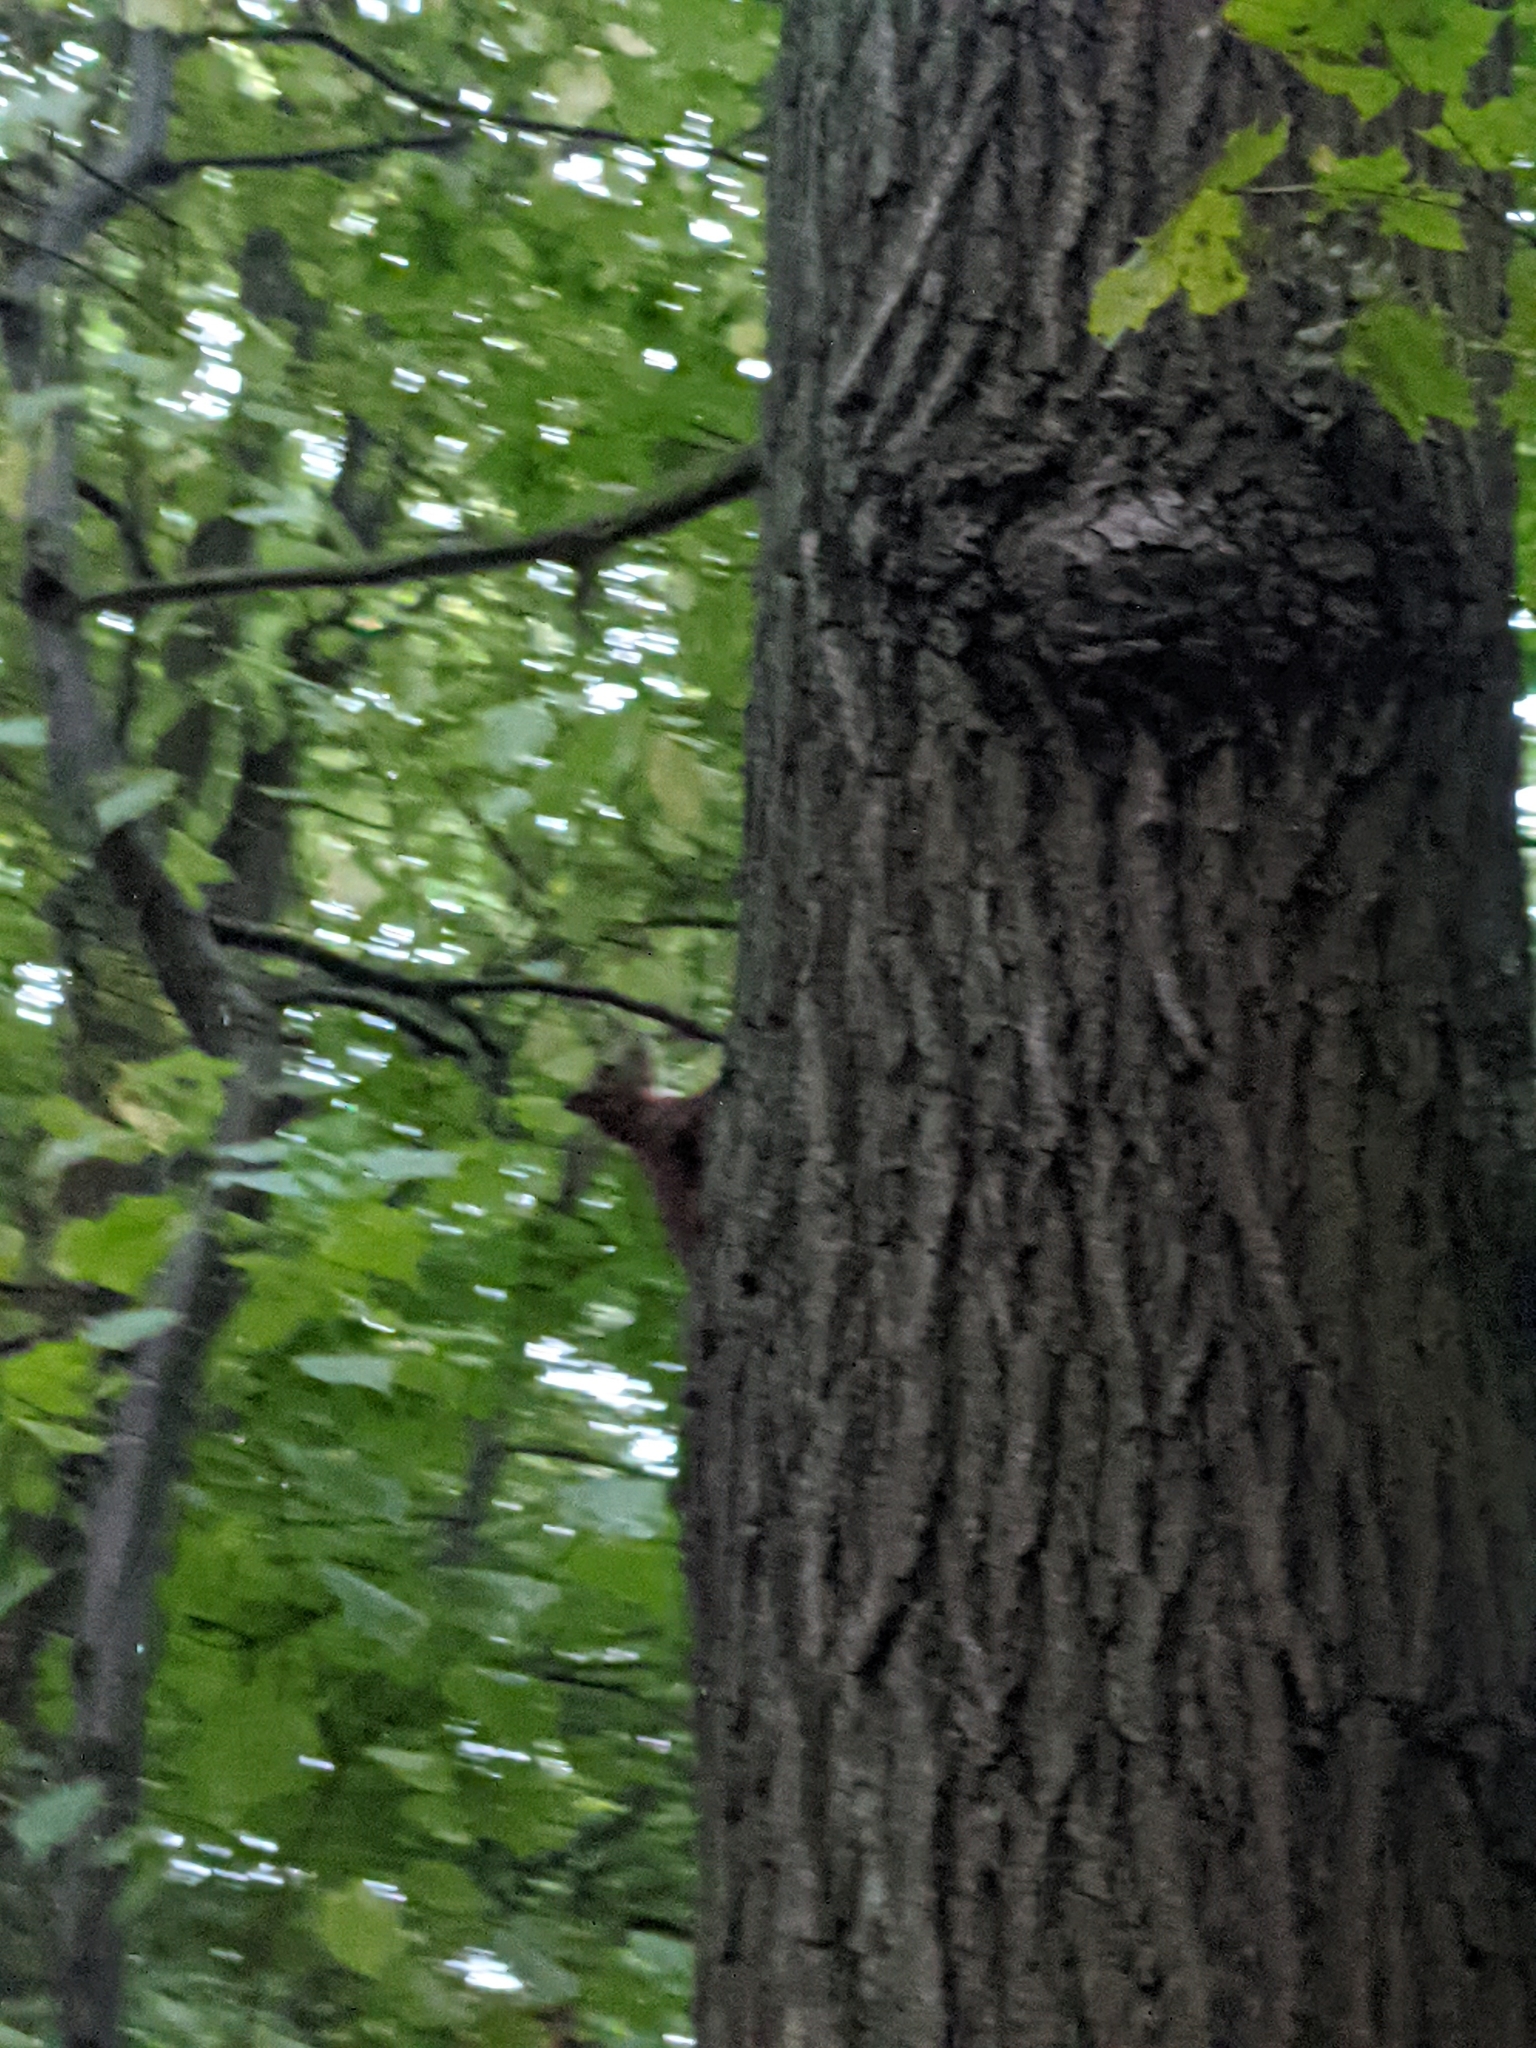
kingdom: Animalia
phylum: Chordata
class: Mammalia
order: Rodentia
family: Sciuridae
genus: Sciurus
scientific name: Sciurus vulgaris
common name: Eurasian red squirrel
